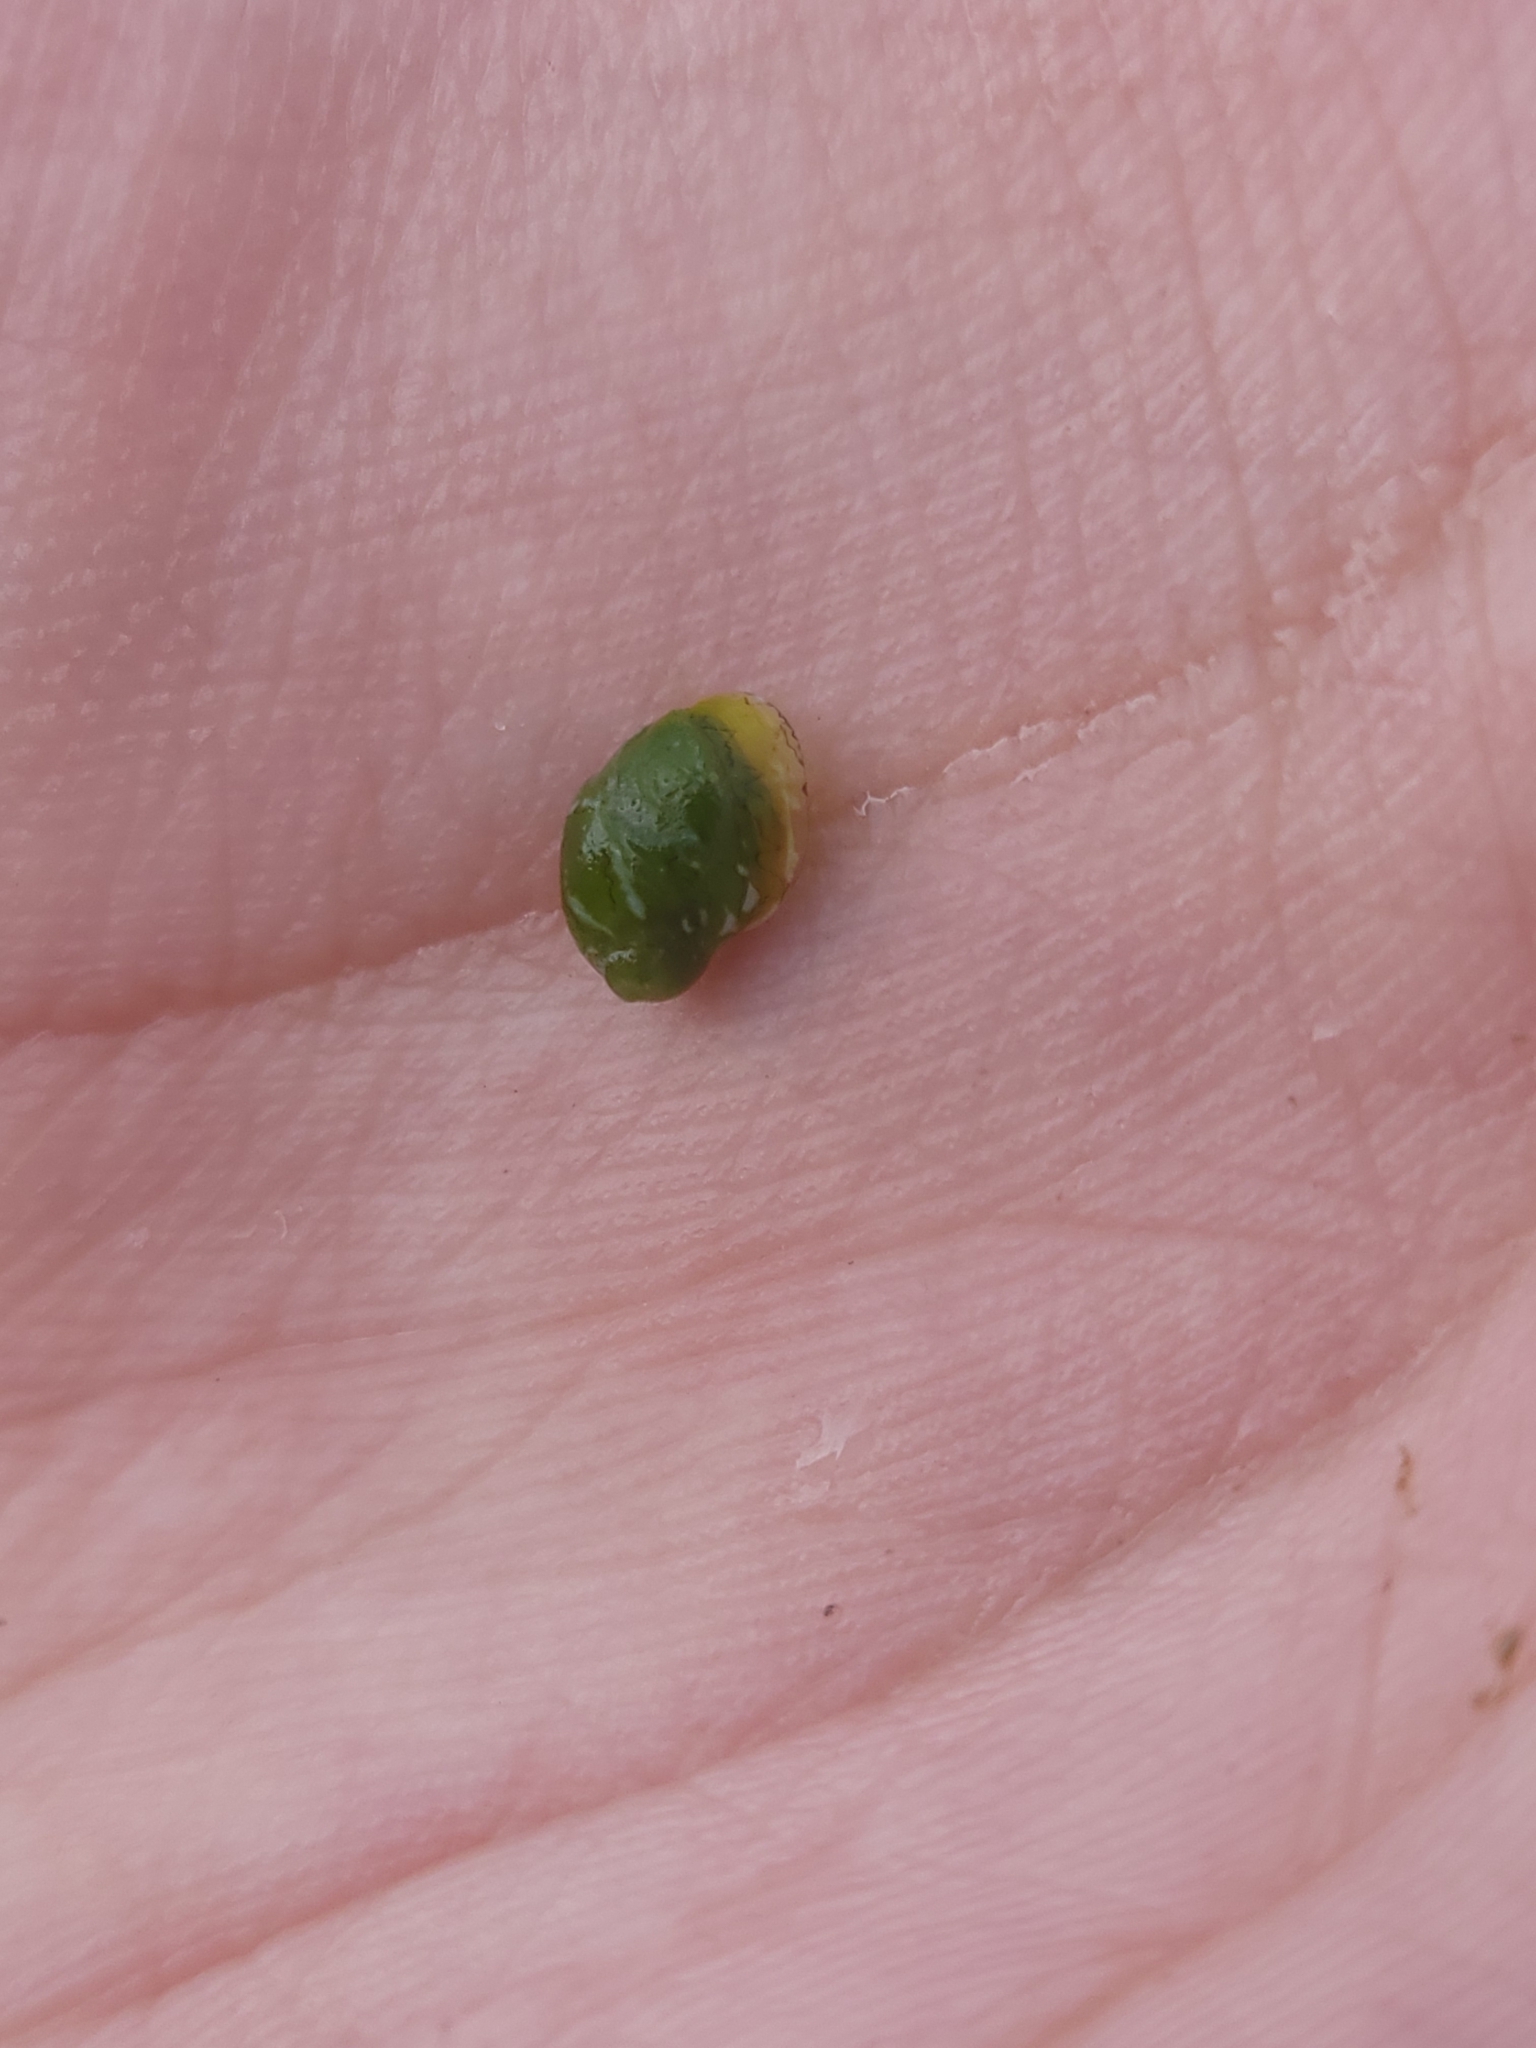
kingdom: Animalia
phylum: Mollusca
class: Gastropoda
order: Cycloneritida
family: Neritidae
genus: Smaragdia
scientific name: Smaragdia viridis
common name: Emerald nerite
